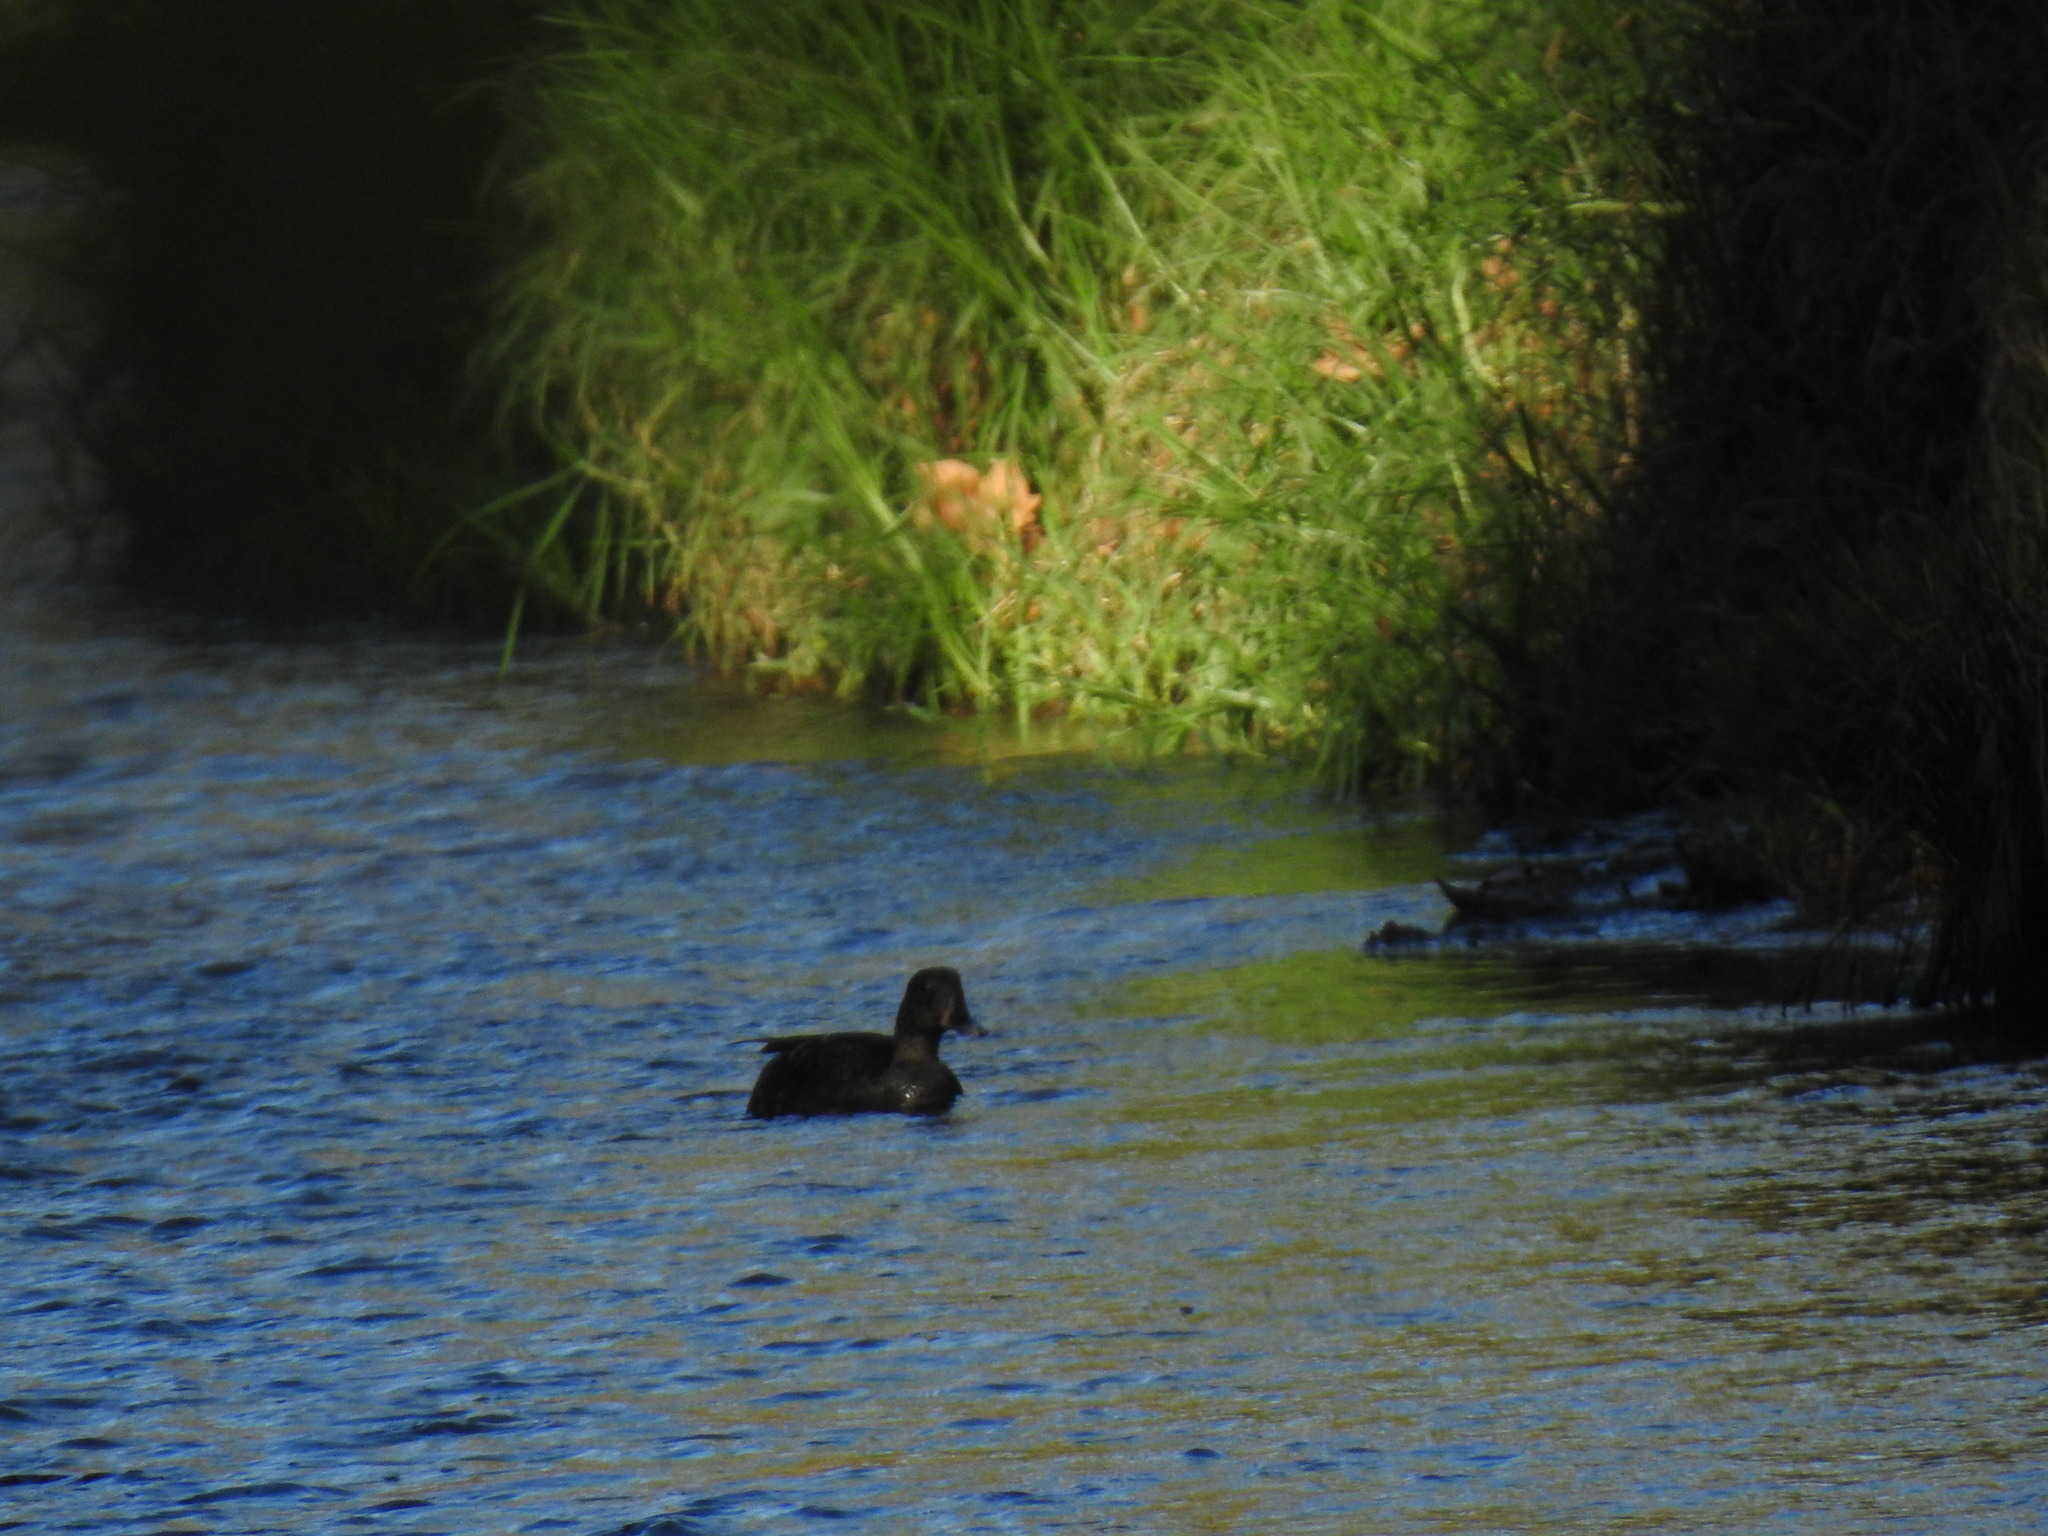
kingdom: Animalia
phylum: Chordata
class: Aves
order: Anseriformes
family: Anatidae
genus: Anas
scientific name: Anas sparsa
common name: African black duck
